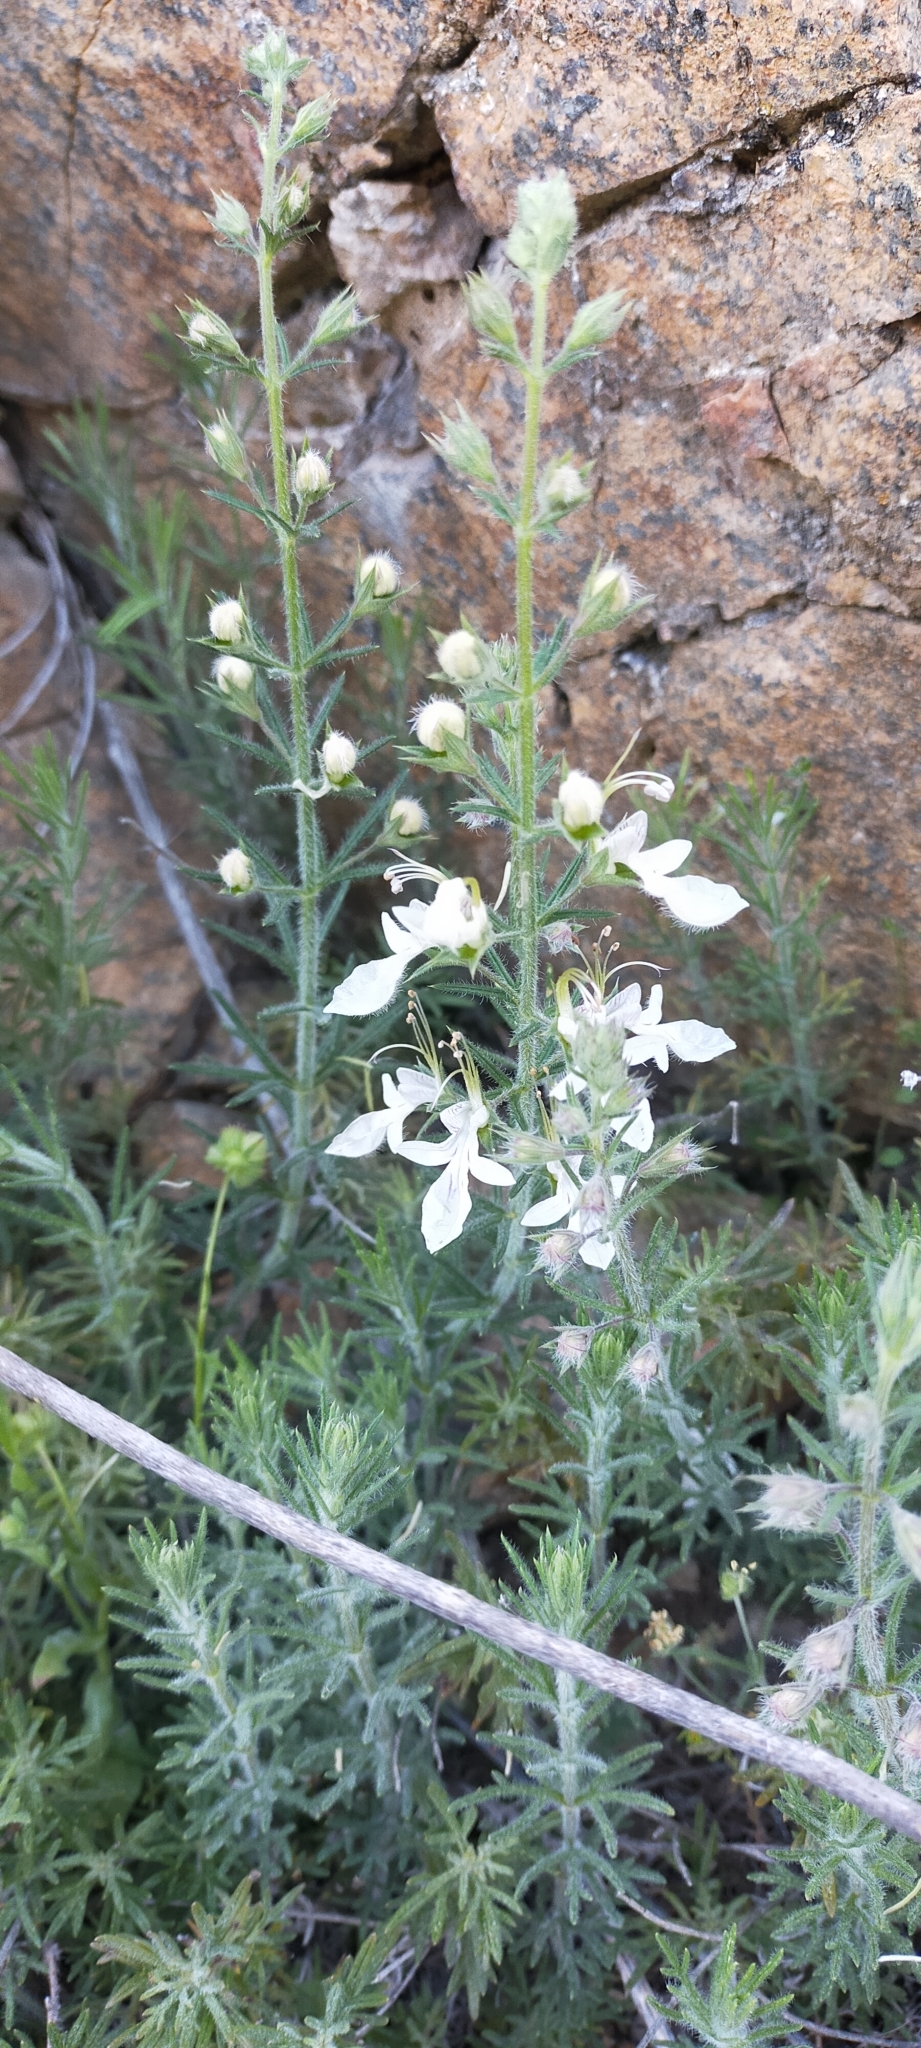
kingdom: Plantae
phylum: Tracheophyta
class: Magnoliopsida
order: Lamiales
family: Lamiaceae
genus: Teucrium
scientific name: Teucrium pseudochamaepitys
